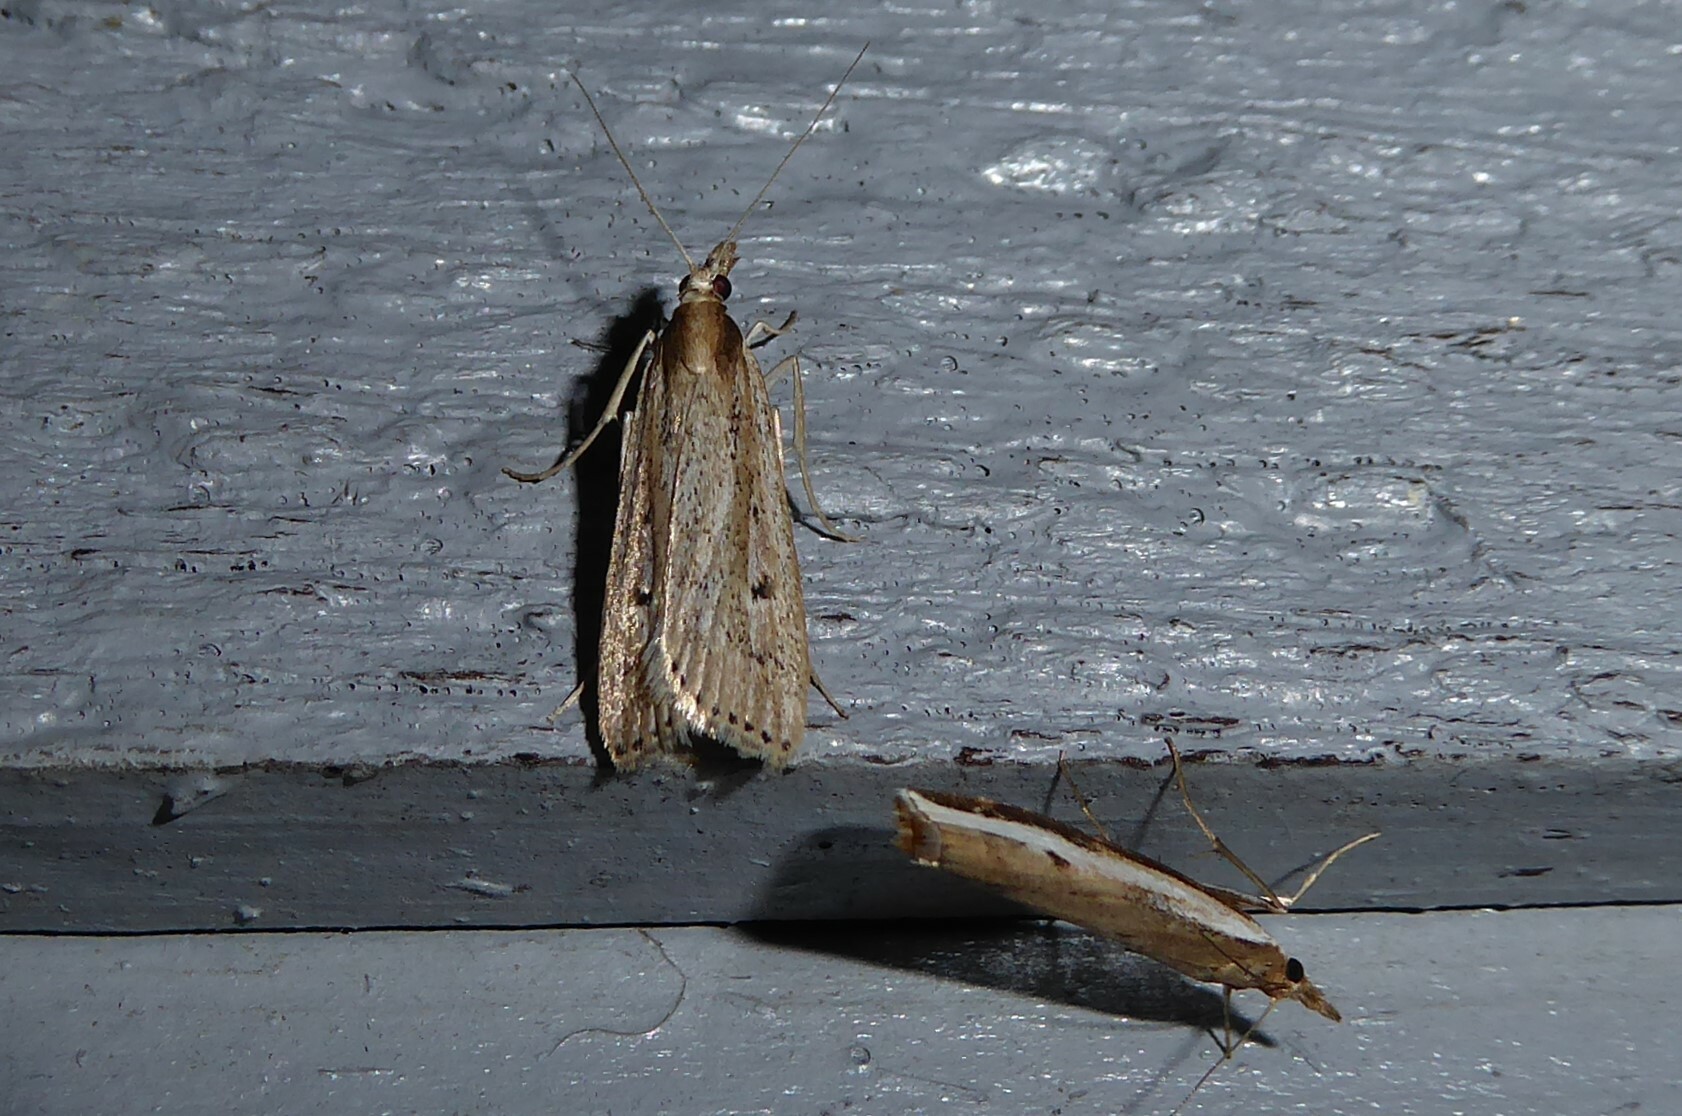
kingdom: Animalia
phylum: Arthropoda
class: Insecta
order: Lepidoptera
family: Crambidae
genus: Eudonia
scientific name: Eudonia sabulosella
